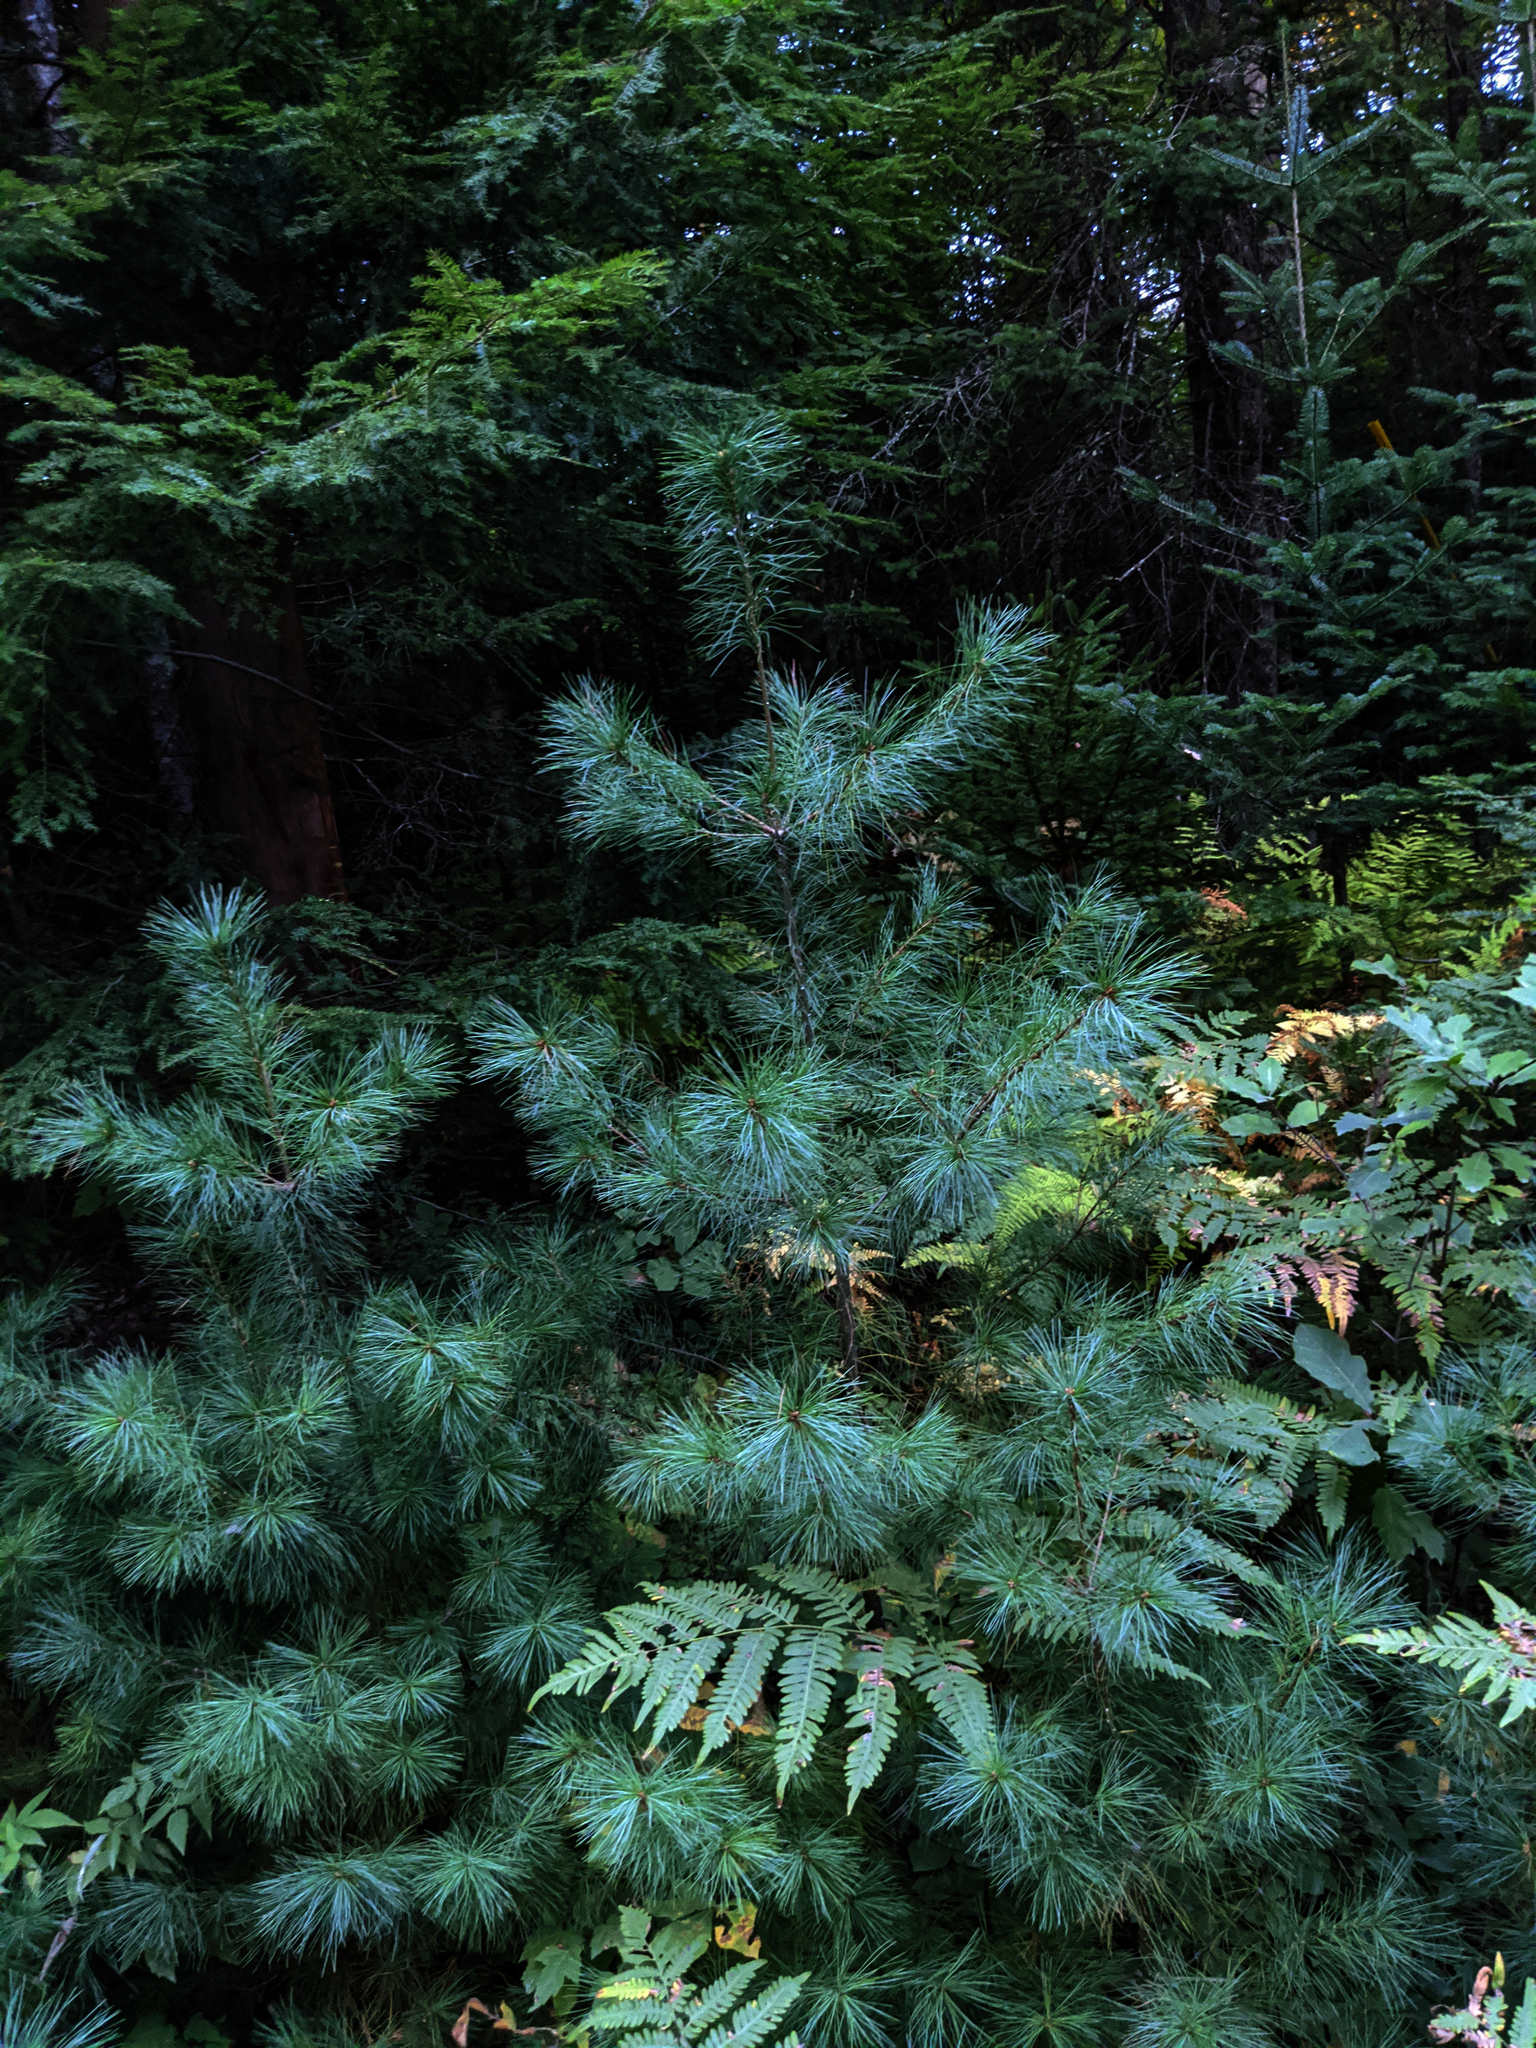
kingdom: Plantae
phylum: Tracheophyta
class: Pinopsida
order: Pinales
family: Pinaceae
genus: Pinus
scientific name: Pinus strobus
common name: Weymouth pine
